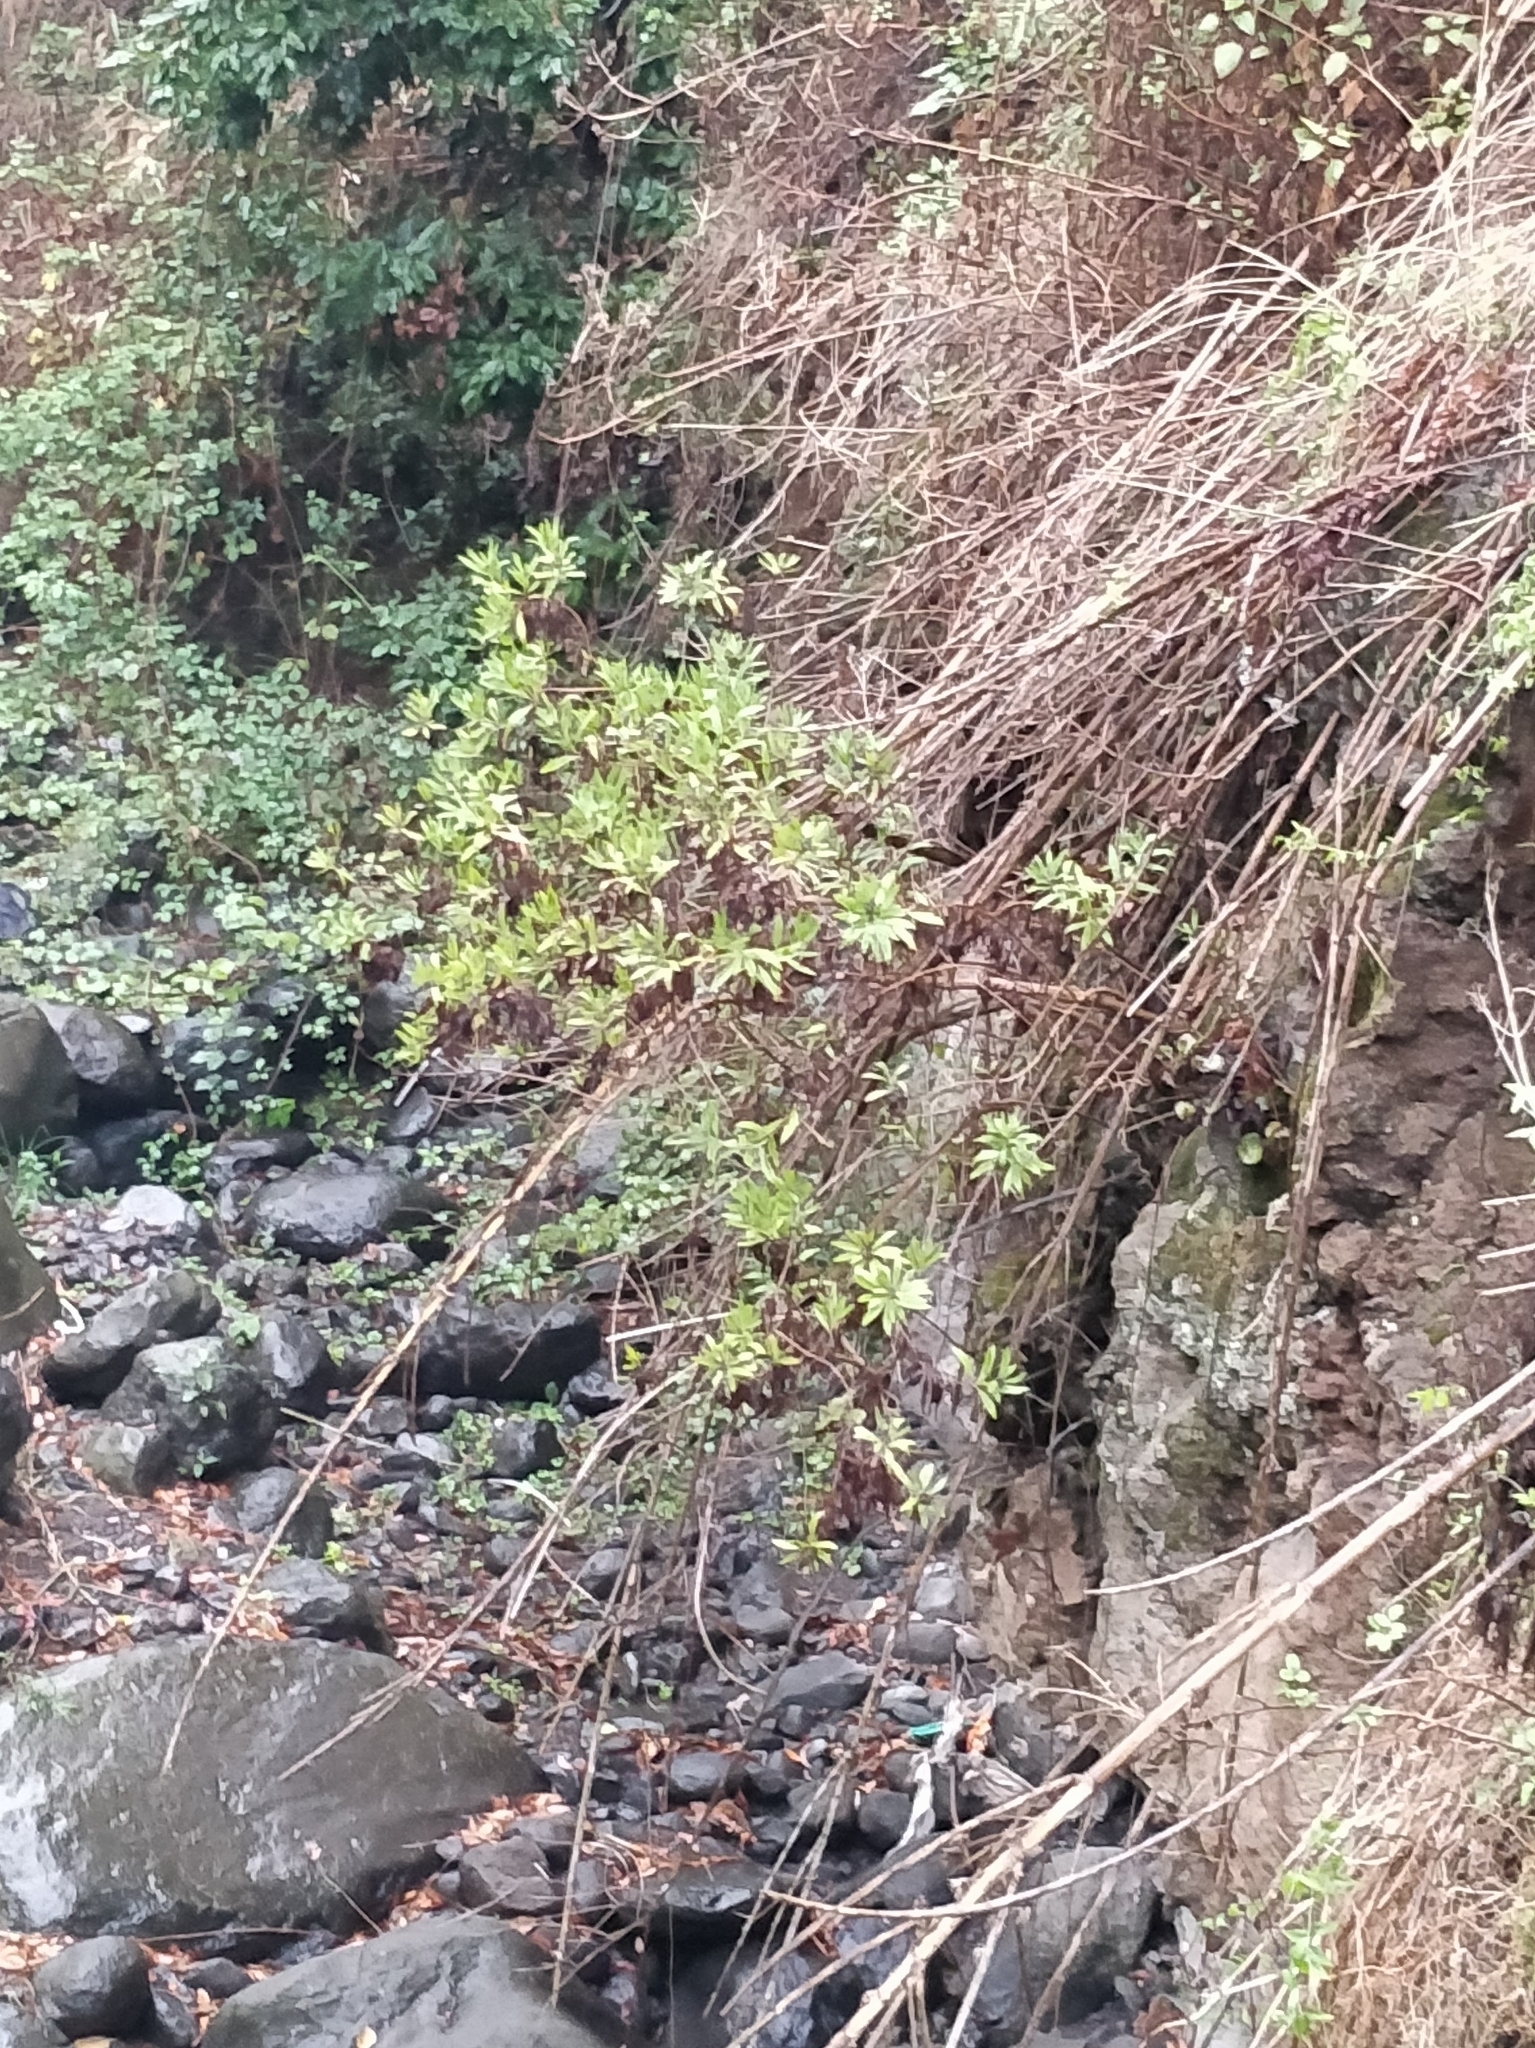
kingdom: Plantae
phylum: Tracheophyta
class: Magnoliopsida
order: Lamiales
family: Plantaginaceae
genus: Globularia
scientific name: Globularia salicina
